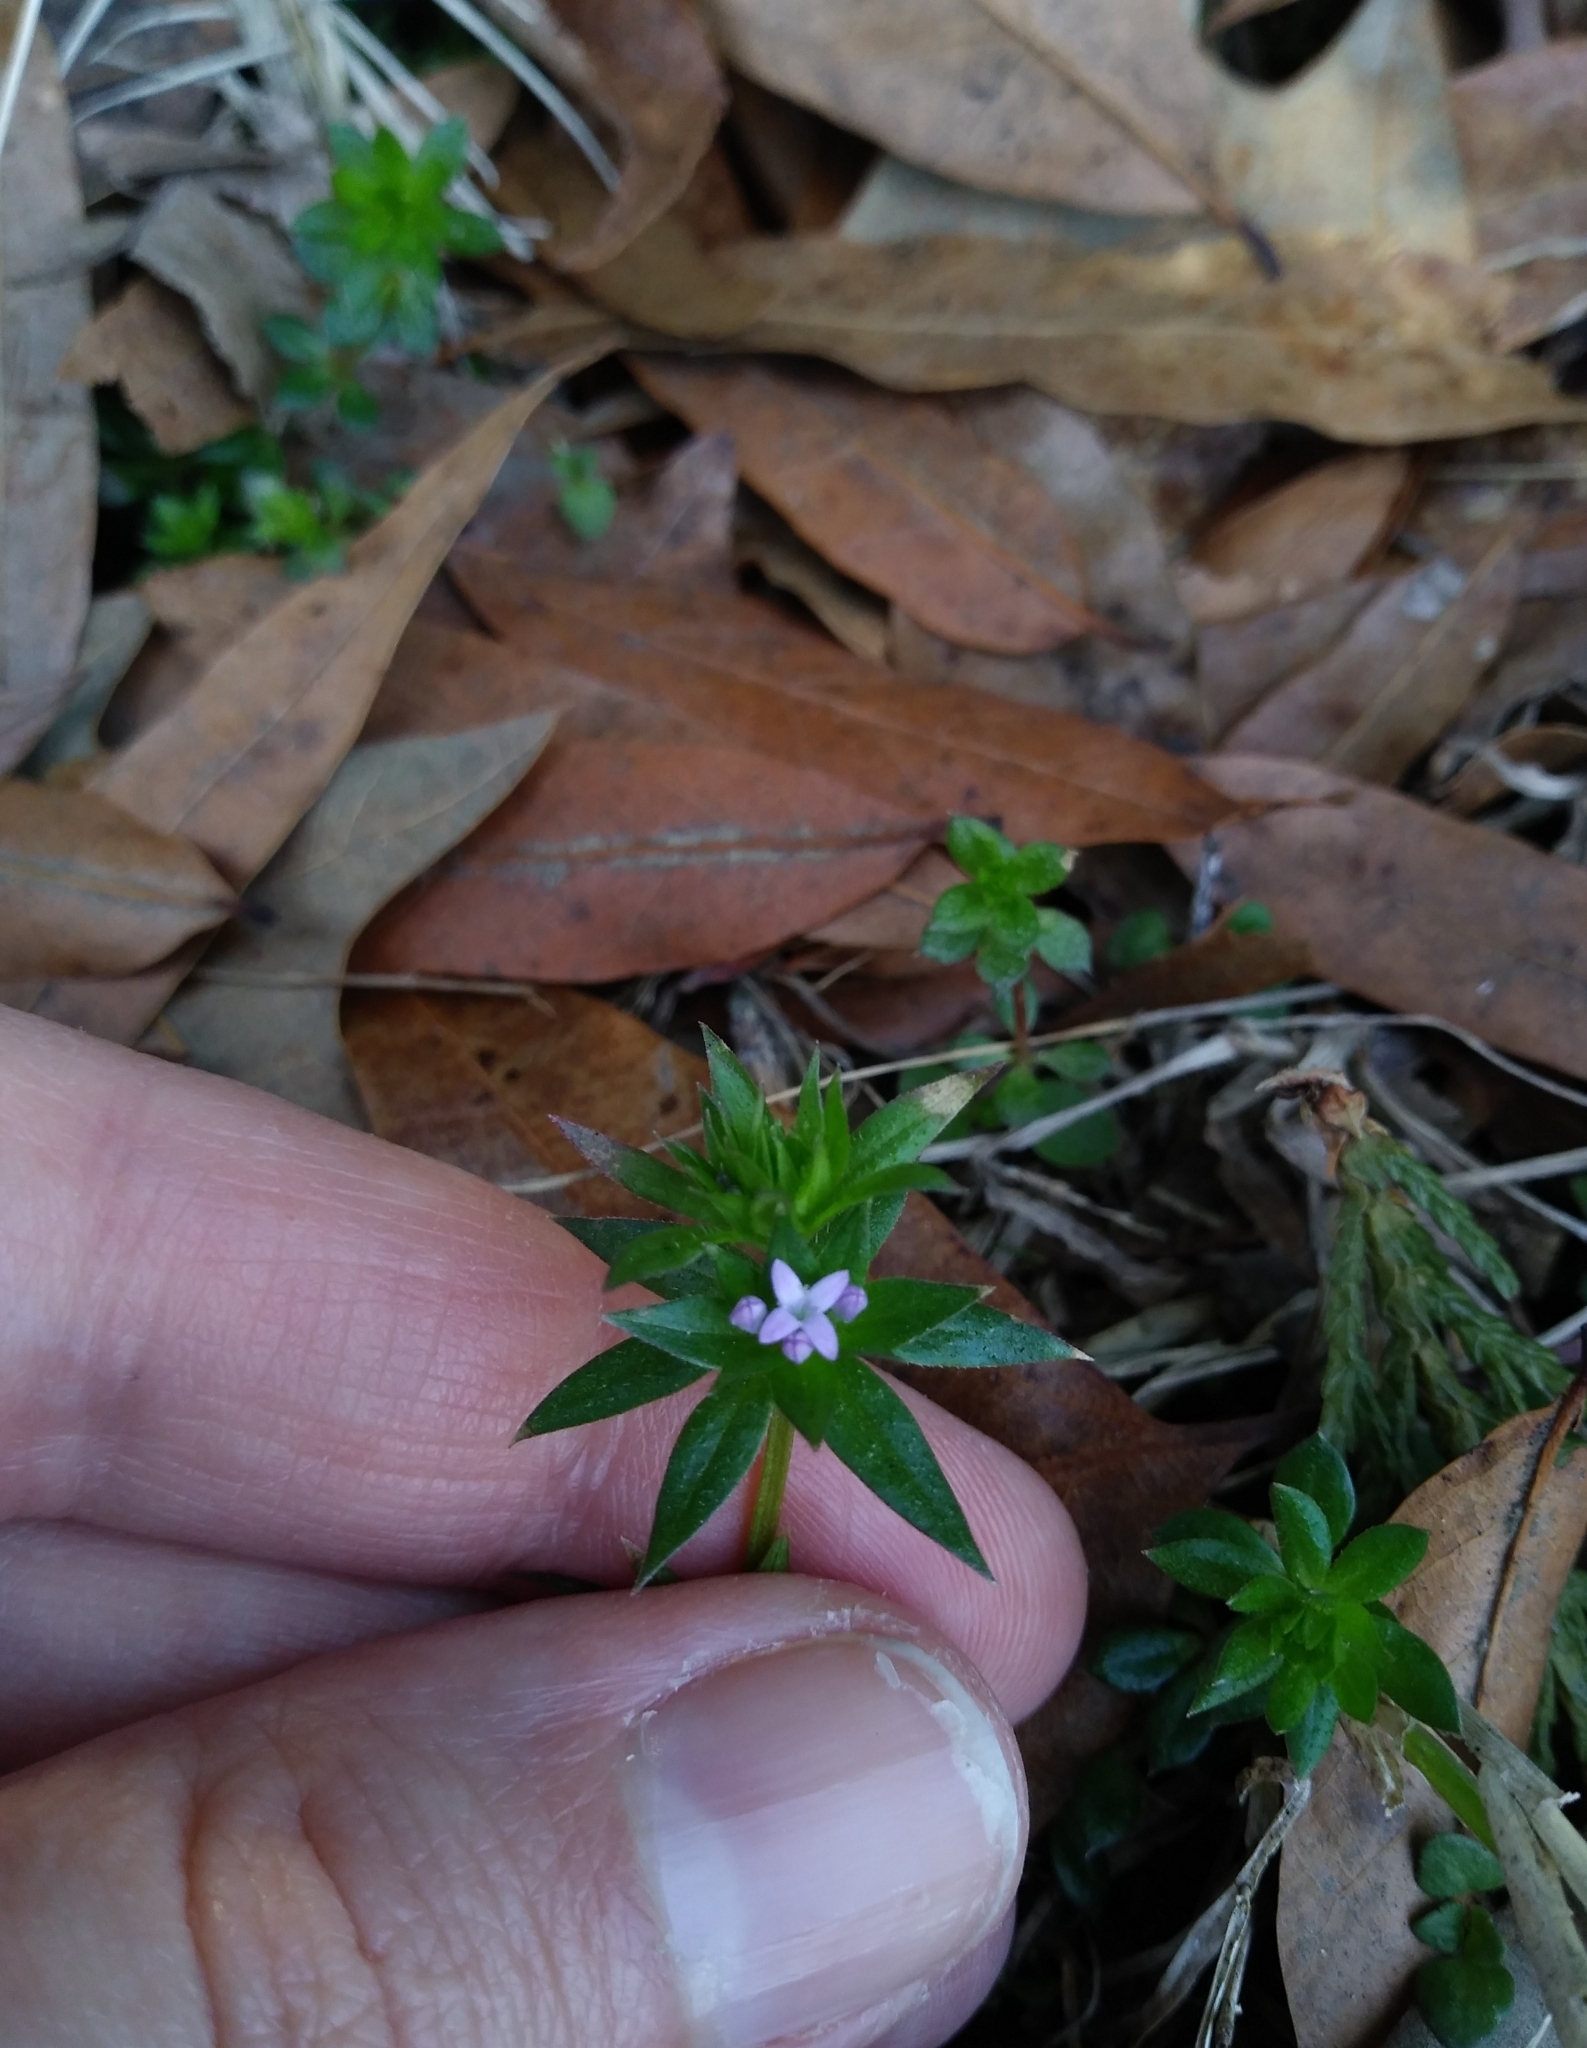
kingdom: Plantae
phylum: Tracheophyta
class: Magnoliopsida
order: Gentianales
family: Rubiaceae
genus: Sherardia
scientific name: Sherardia arvensis
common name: Field madder
